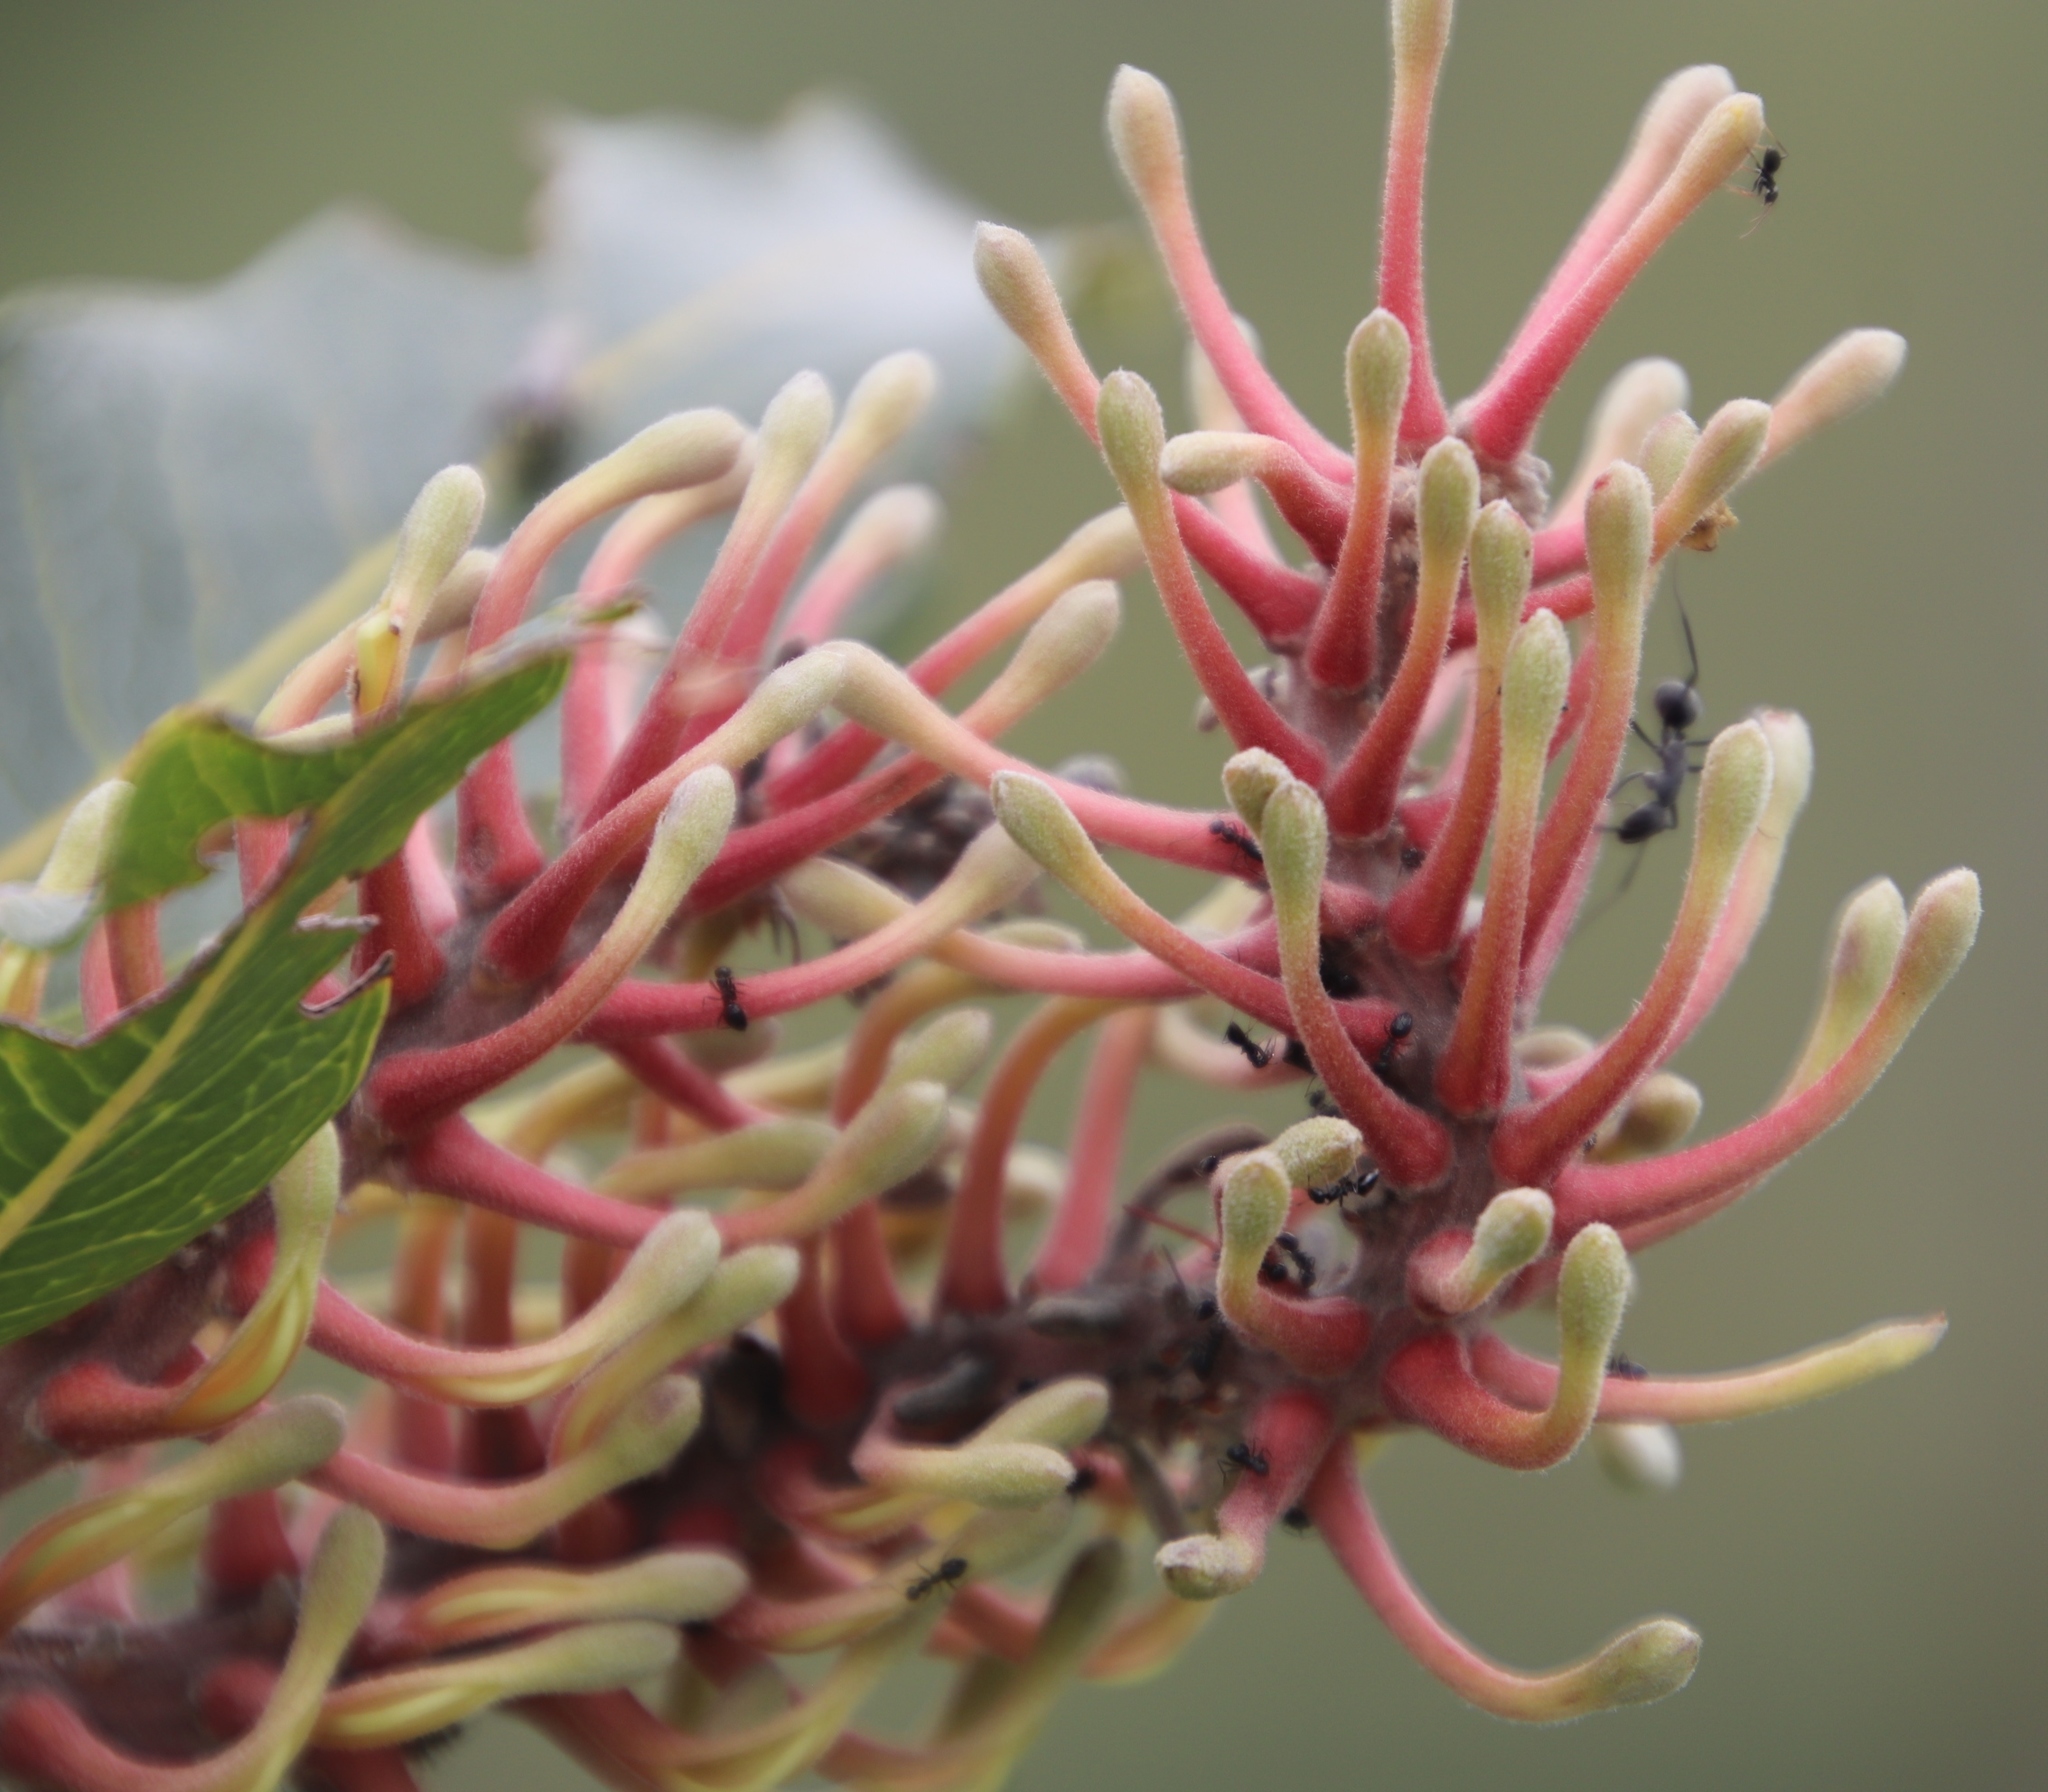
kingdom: Animalia
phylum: Arthropoda
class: Insecta
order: Hymenoptera
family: Formicidae
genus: Camponotus
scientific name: Camponotus petersii
